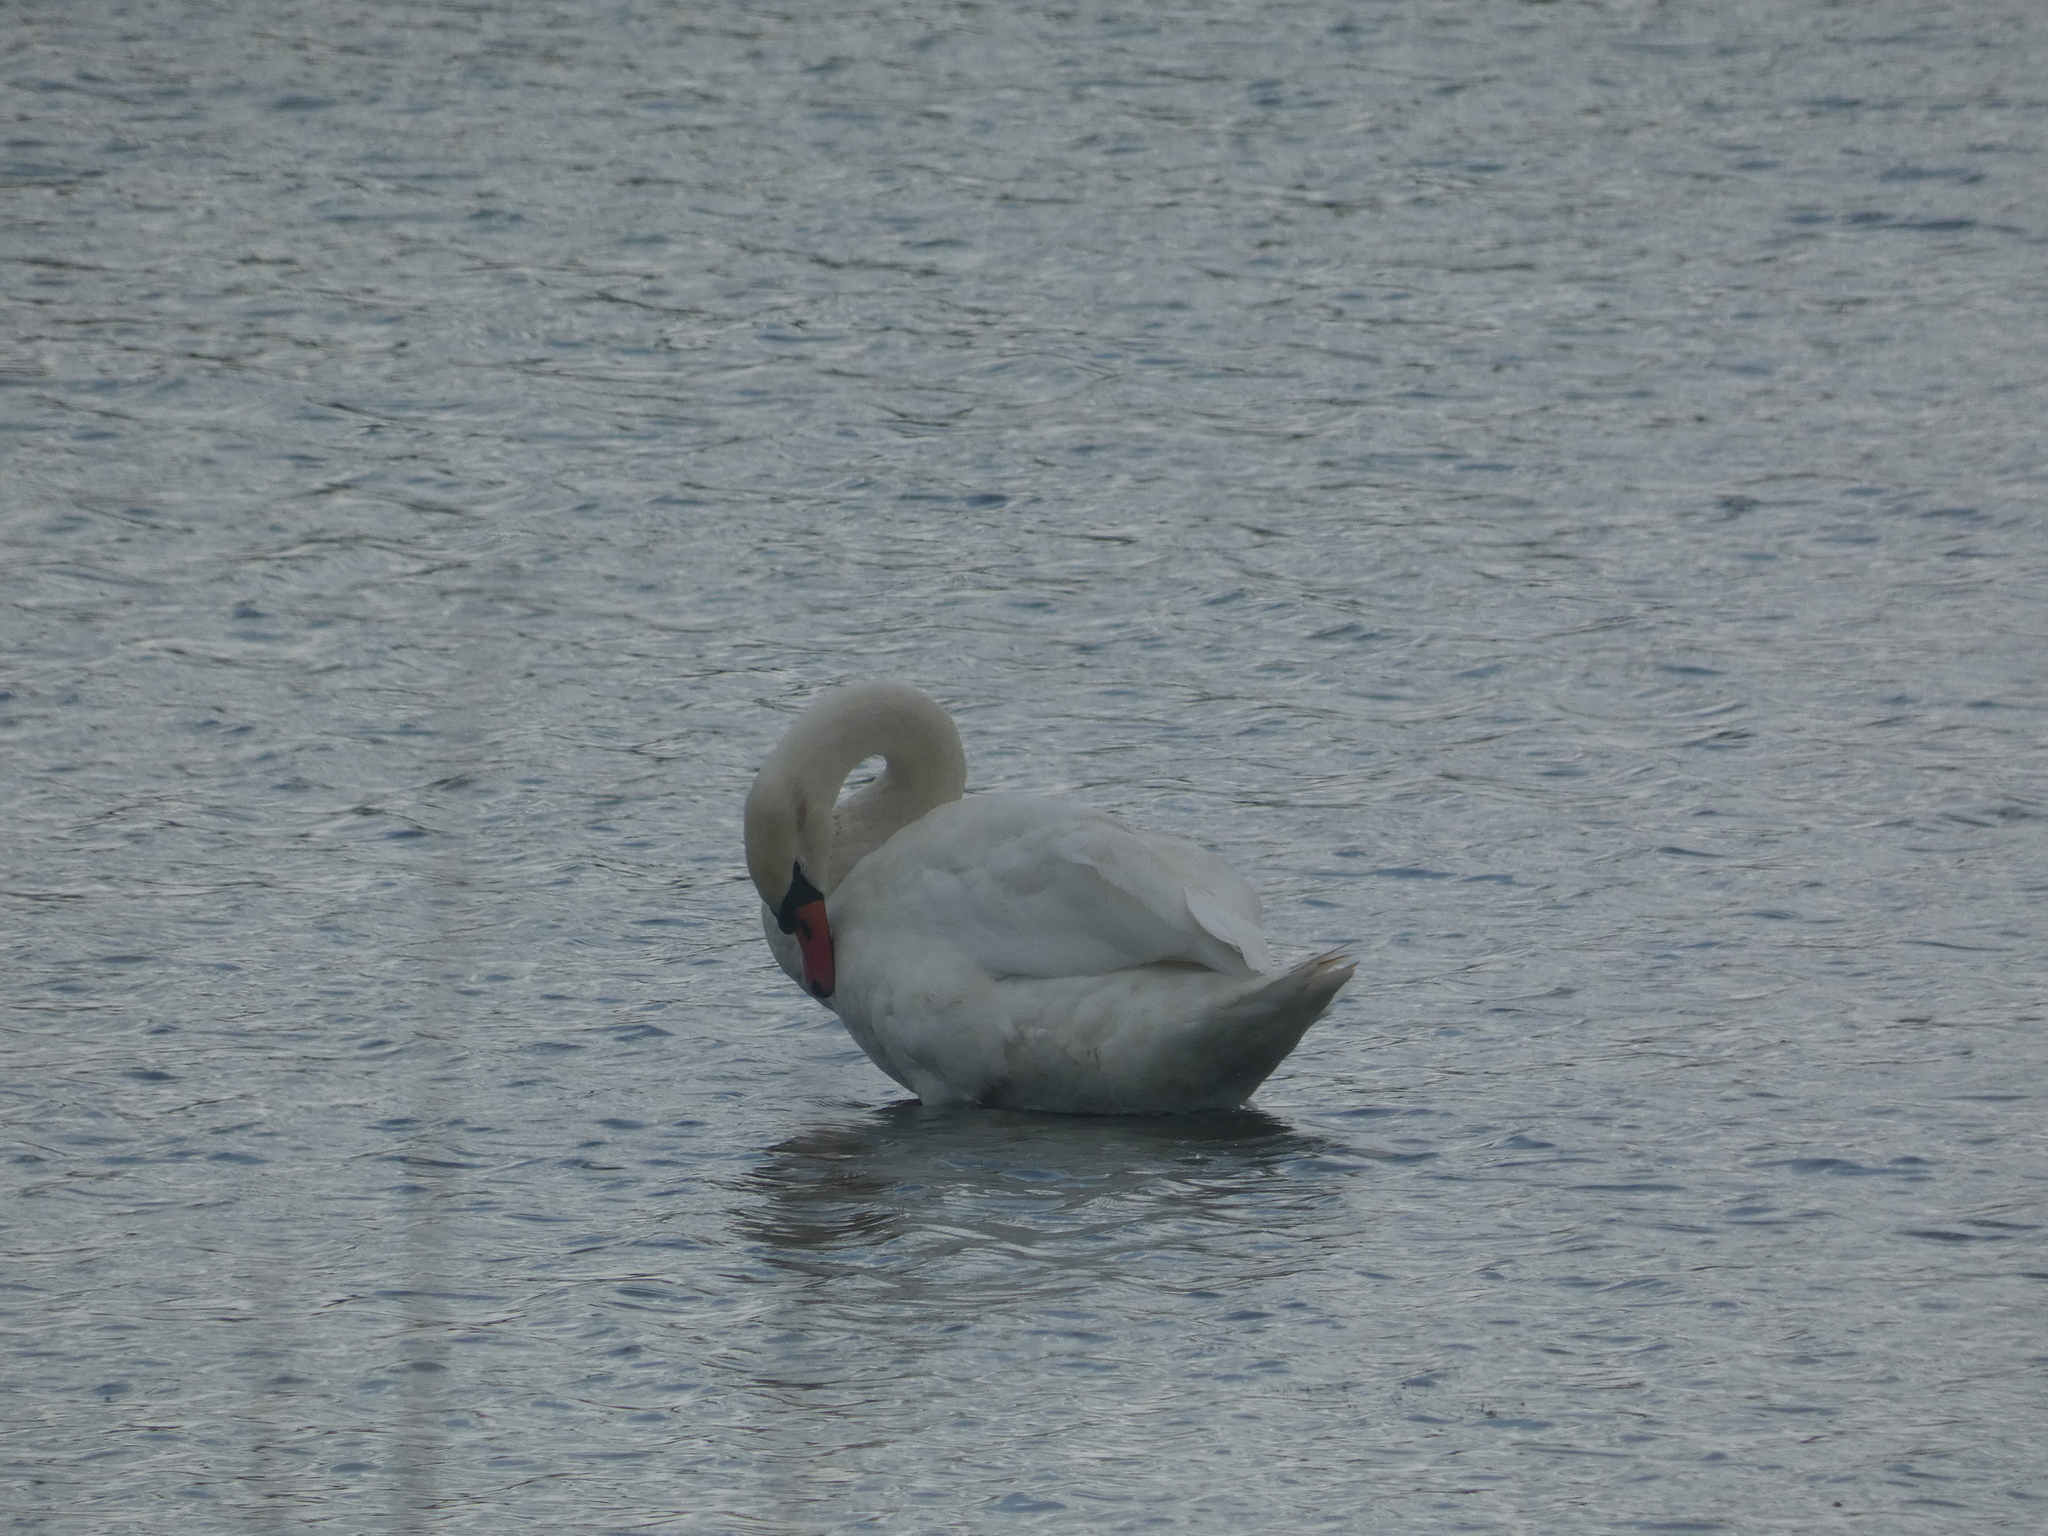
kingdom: Animalia
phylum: Chordata
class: Aves
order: Anseriformes
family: Anatidae
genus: Cygnus
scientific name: Cygnus olor
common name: Mute swan
